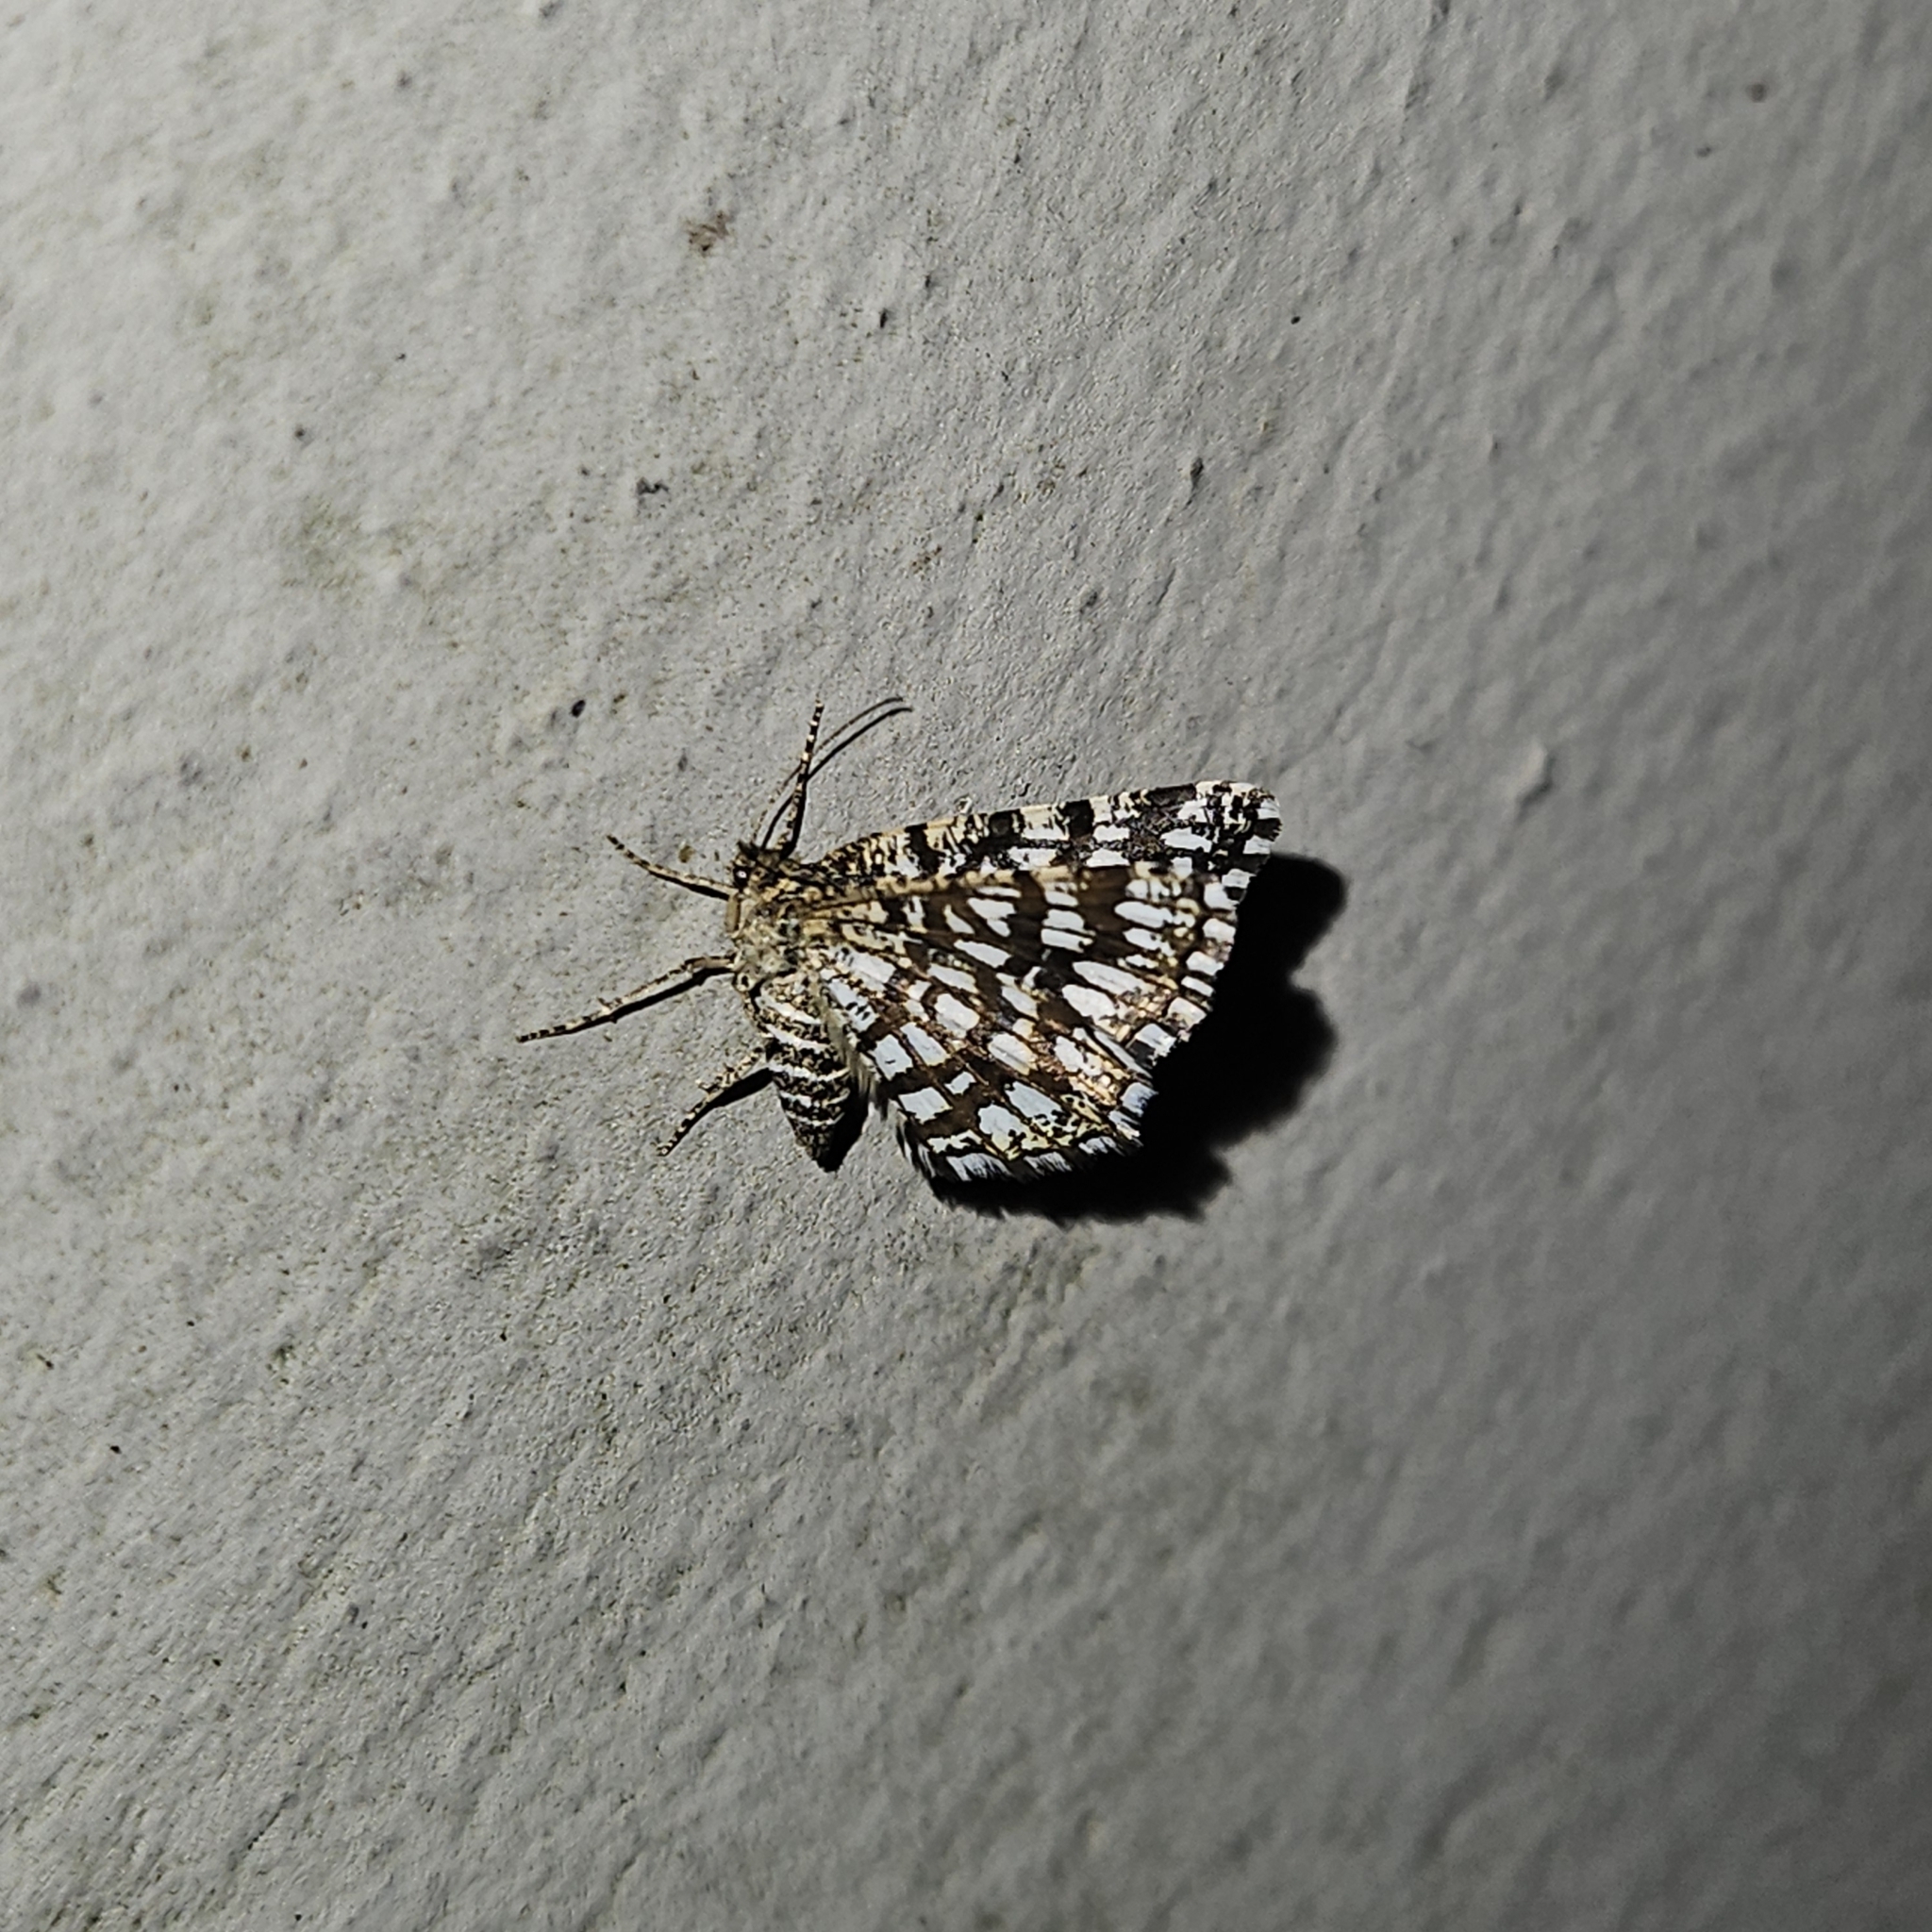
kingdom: Animalia
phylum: Arthropoda
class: Insecta
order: Lepidoptera
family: Geometridae
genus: Chiasmia
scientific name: Chiasmia clathrata
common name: Latticed heath
